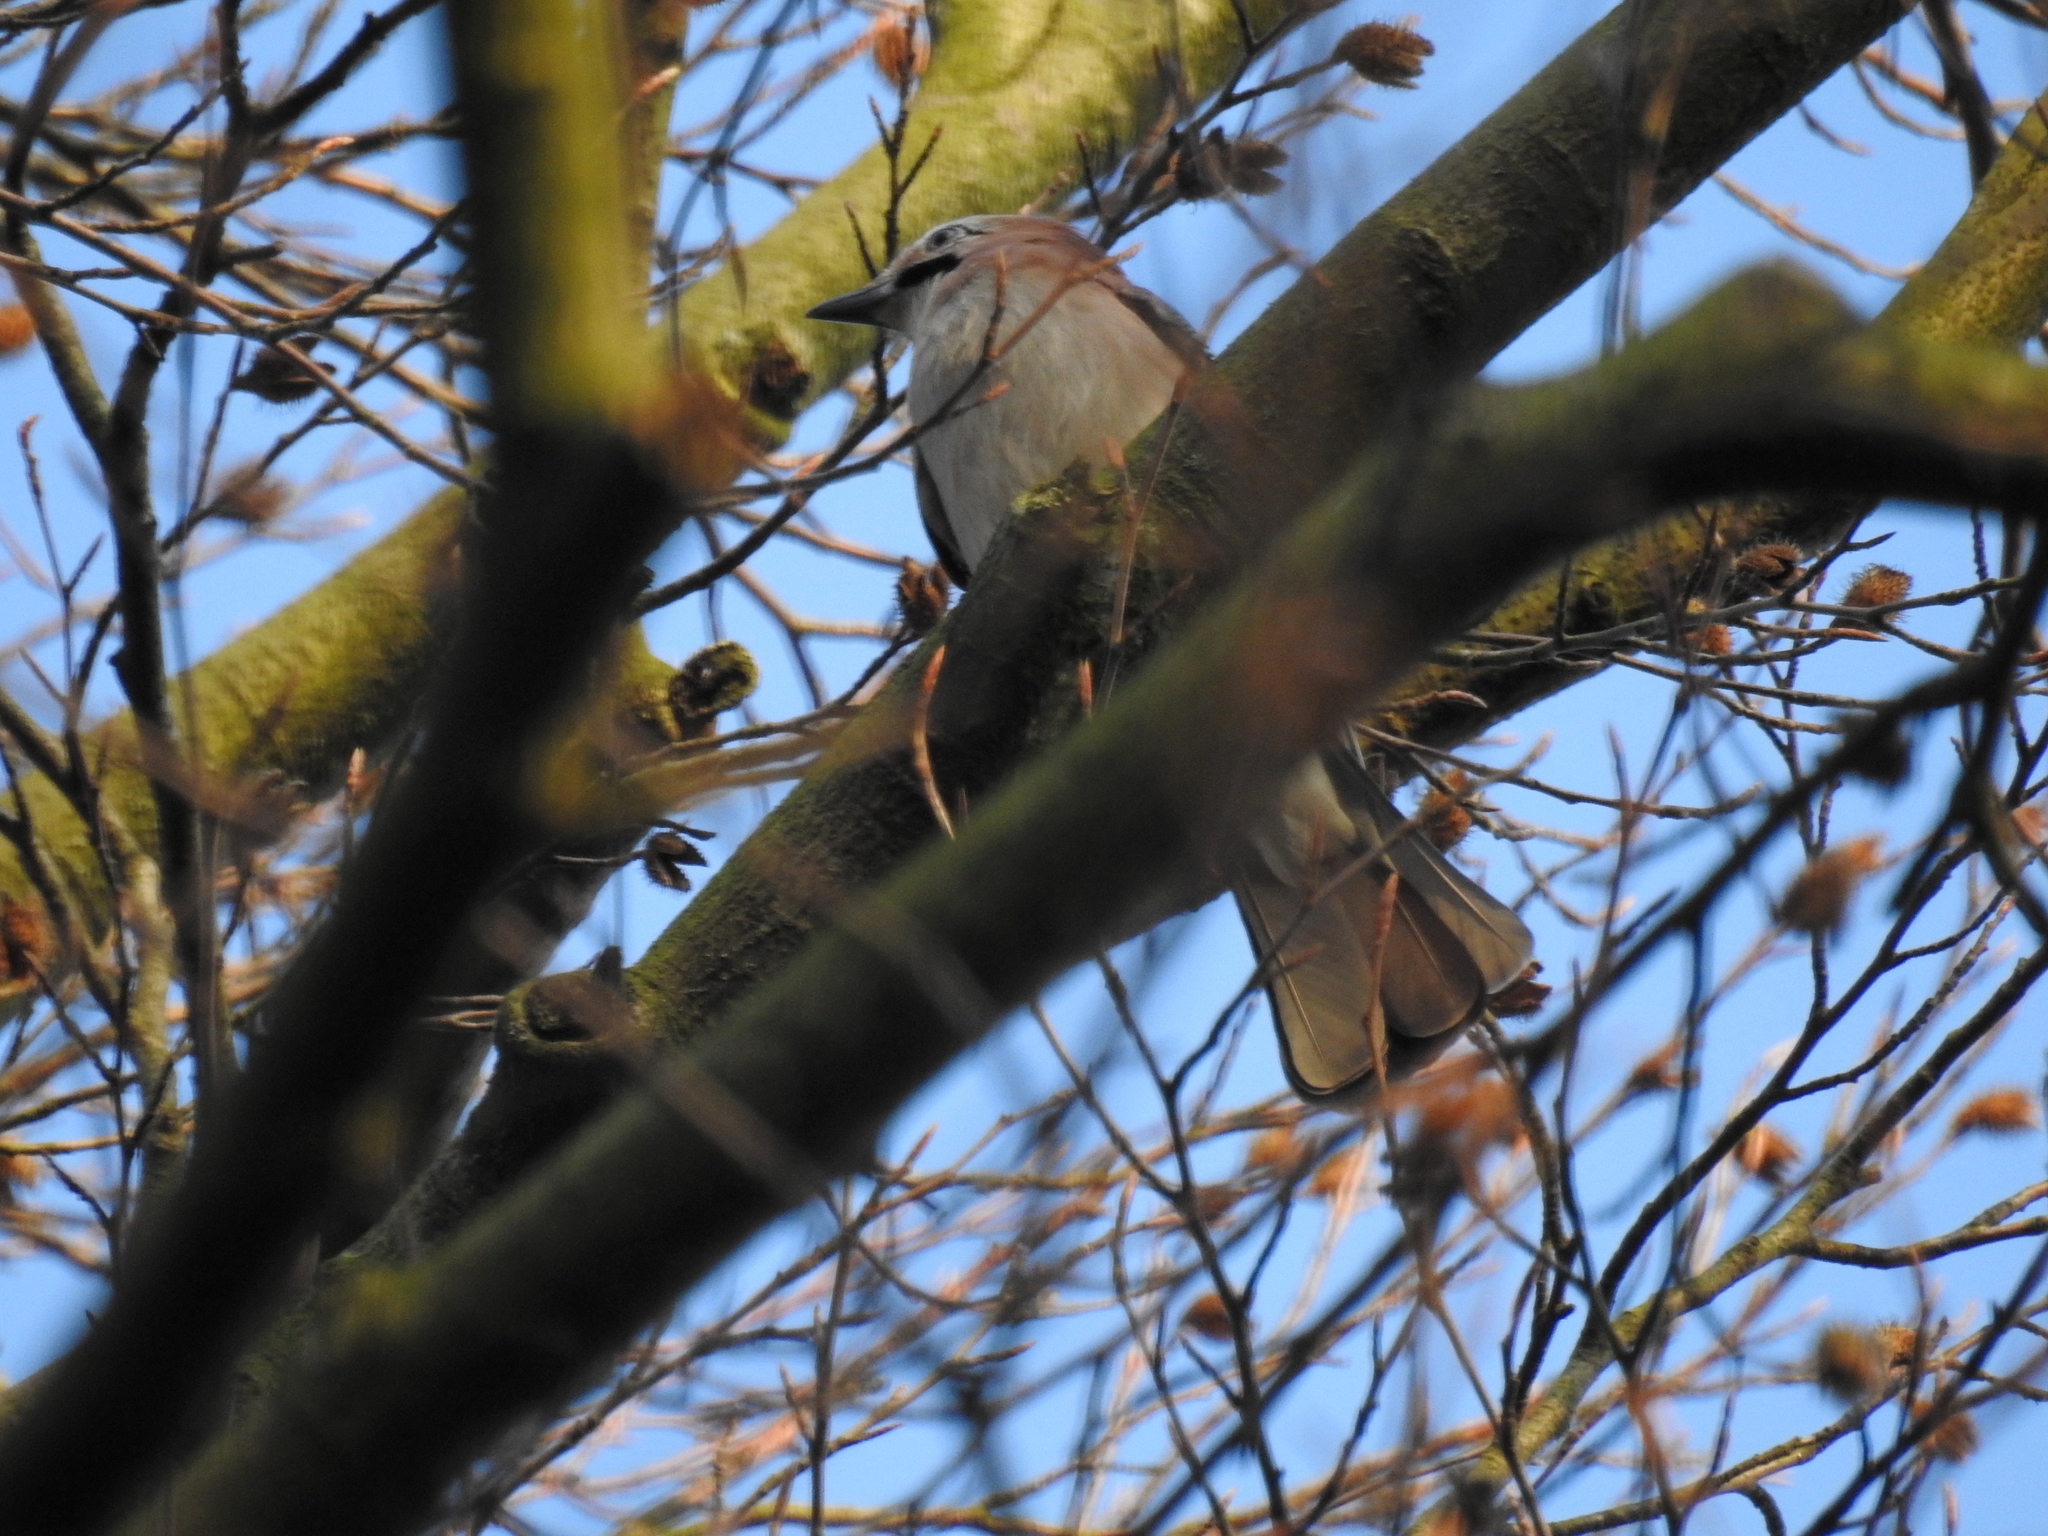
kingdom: Animalia
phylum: Chordata
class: Aves
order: Passeriformes
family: Corvidae
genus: Garrulus
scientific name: Garrulus glandarius
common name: Eurasian jay
